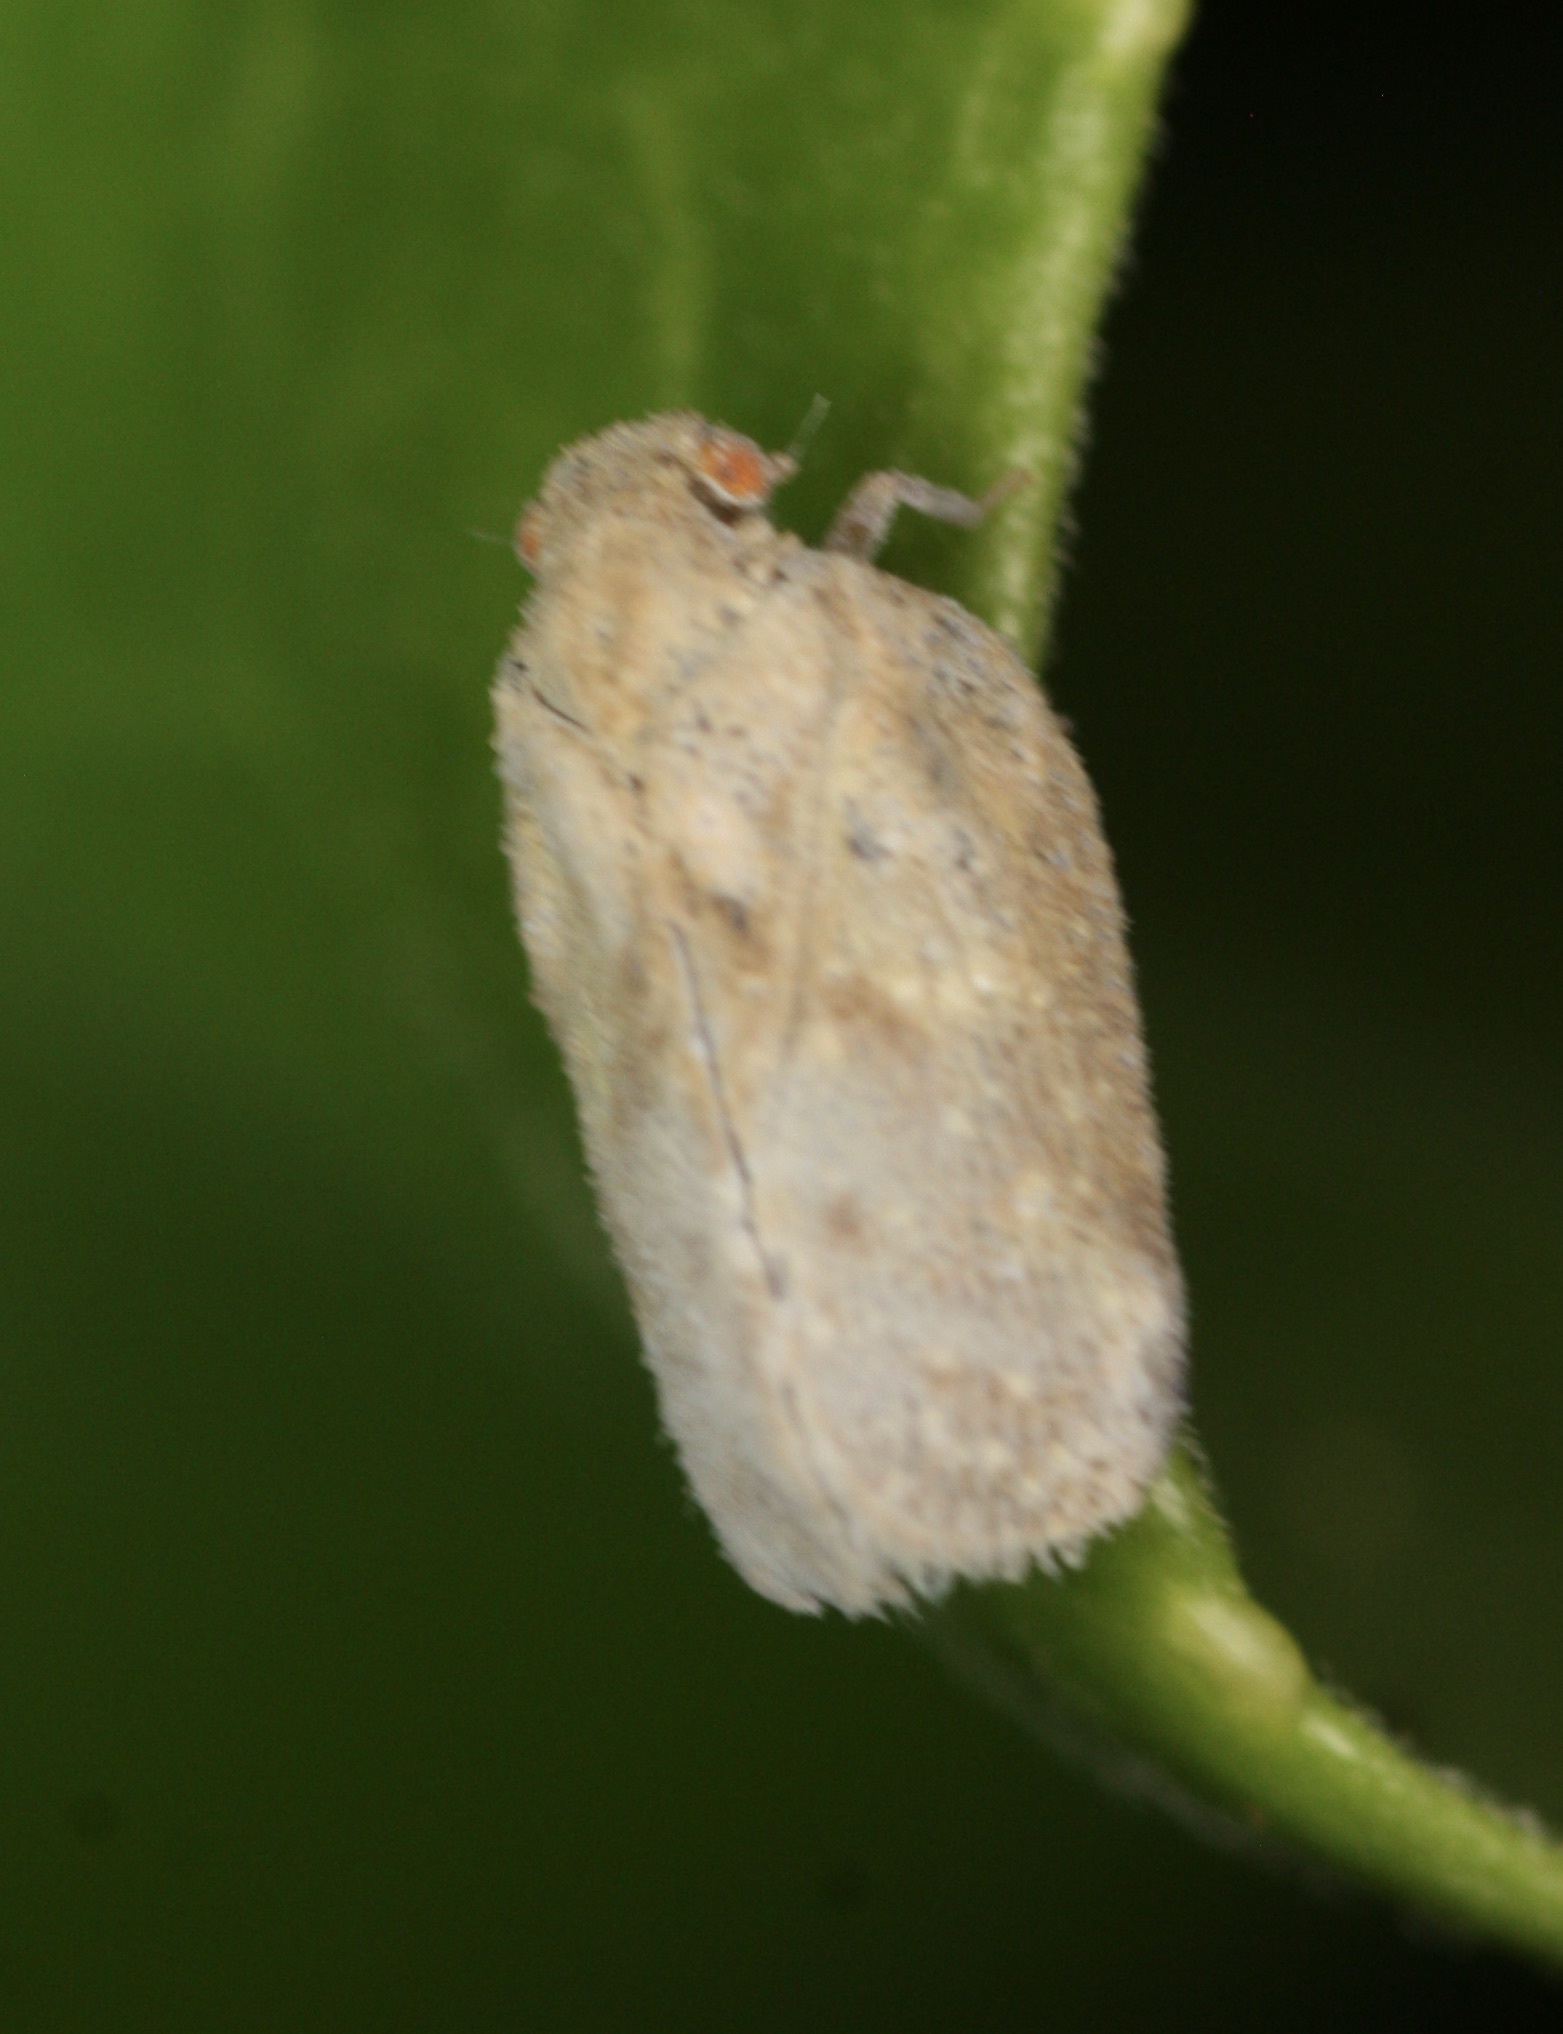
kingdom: Animalia
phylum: Arthropoda
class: Insecta
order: Hemiptera
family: Flatidae
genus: Melormenis
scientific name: Melormenis basalis
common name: Puerto rican planthopper
